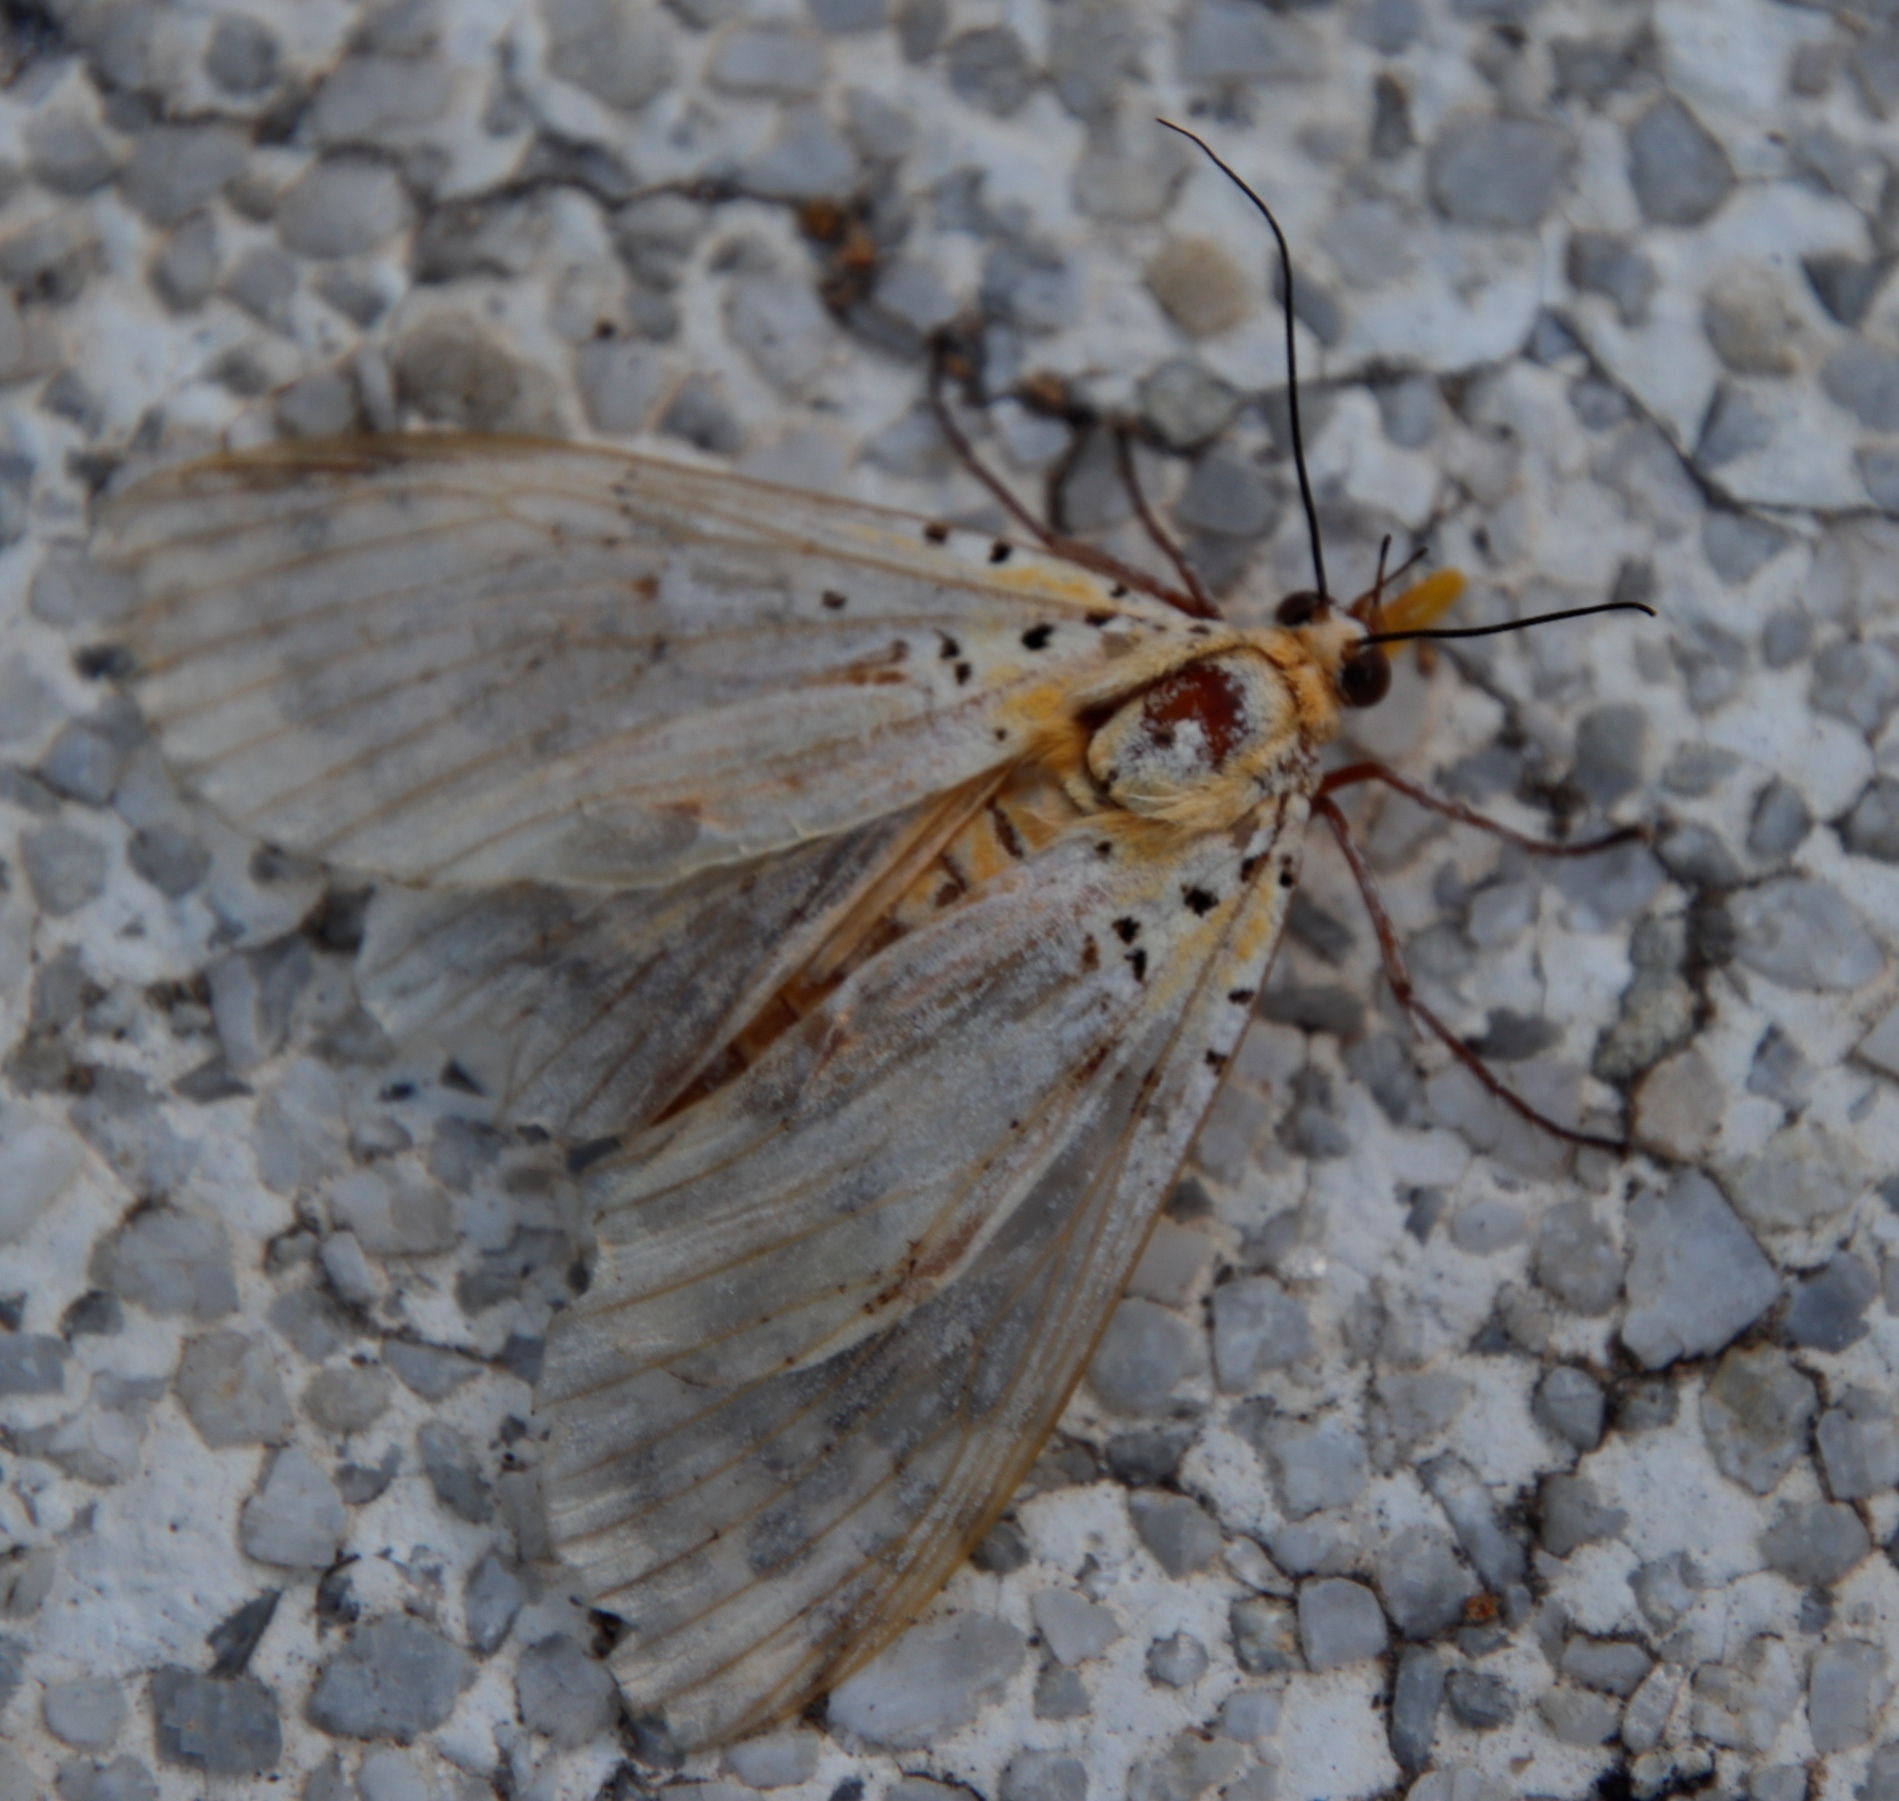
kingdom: Animalia
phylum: Arthropoda
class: Insecta
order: Lepidoptera
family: Erebidae
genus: Asota
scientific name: Asota speciosa
